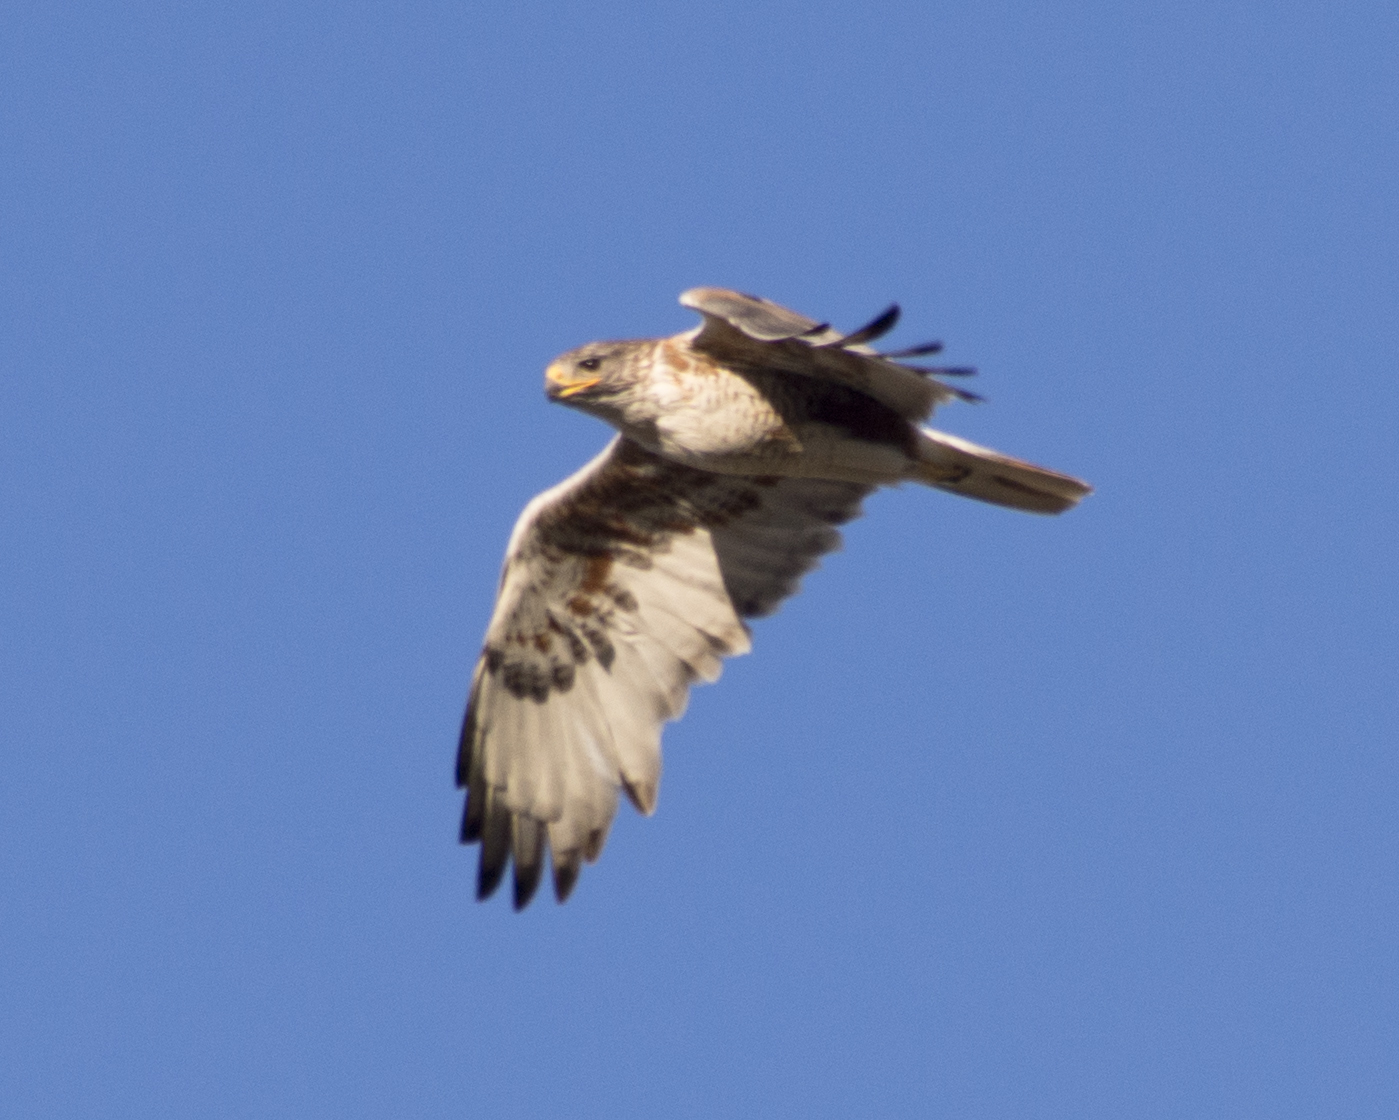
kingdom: Animalia
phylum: Chordata
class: Aves
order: Accipitriformes
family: Accipitridae
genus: Buteo
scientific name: Buteo regalis
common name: Ferruginous hawk
